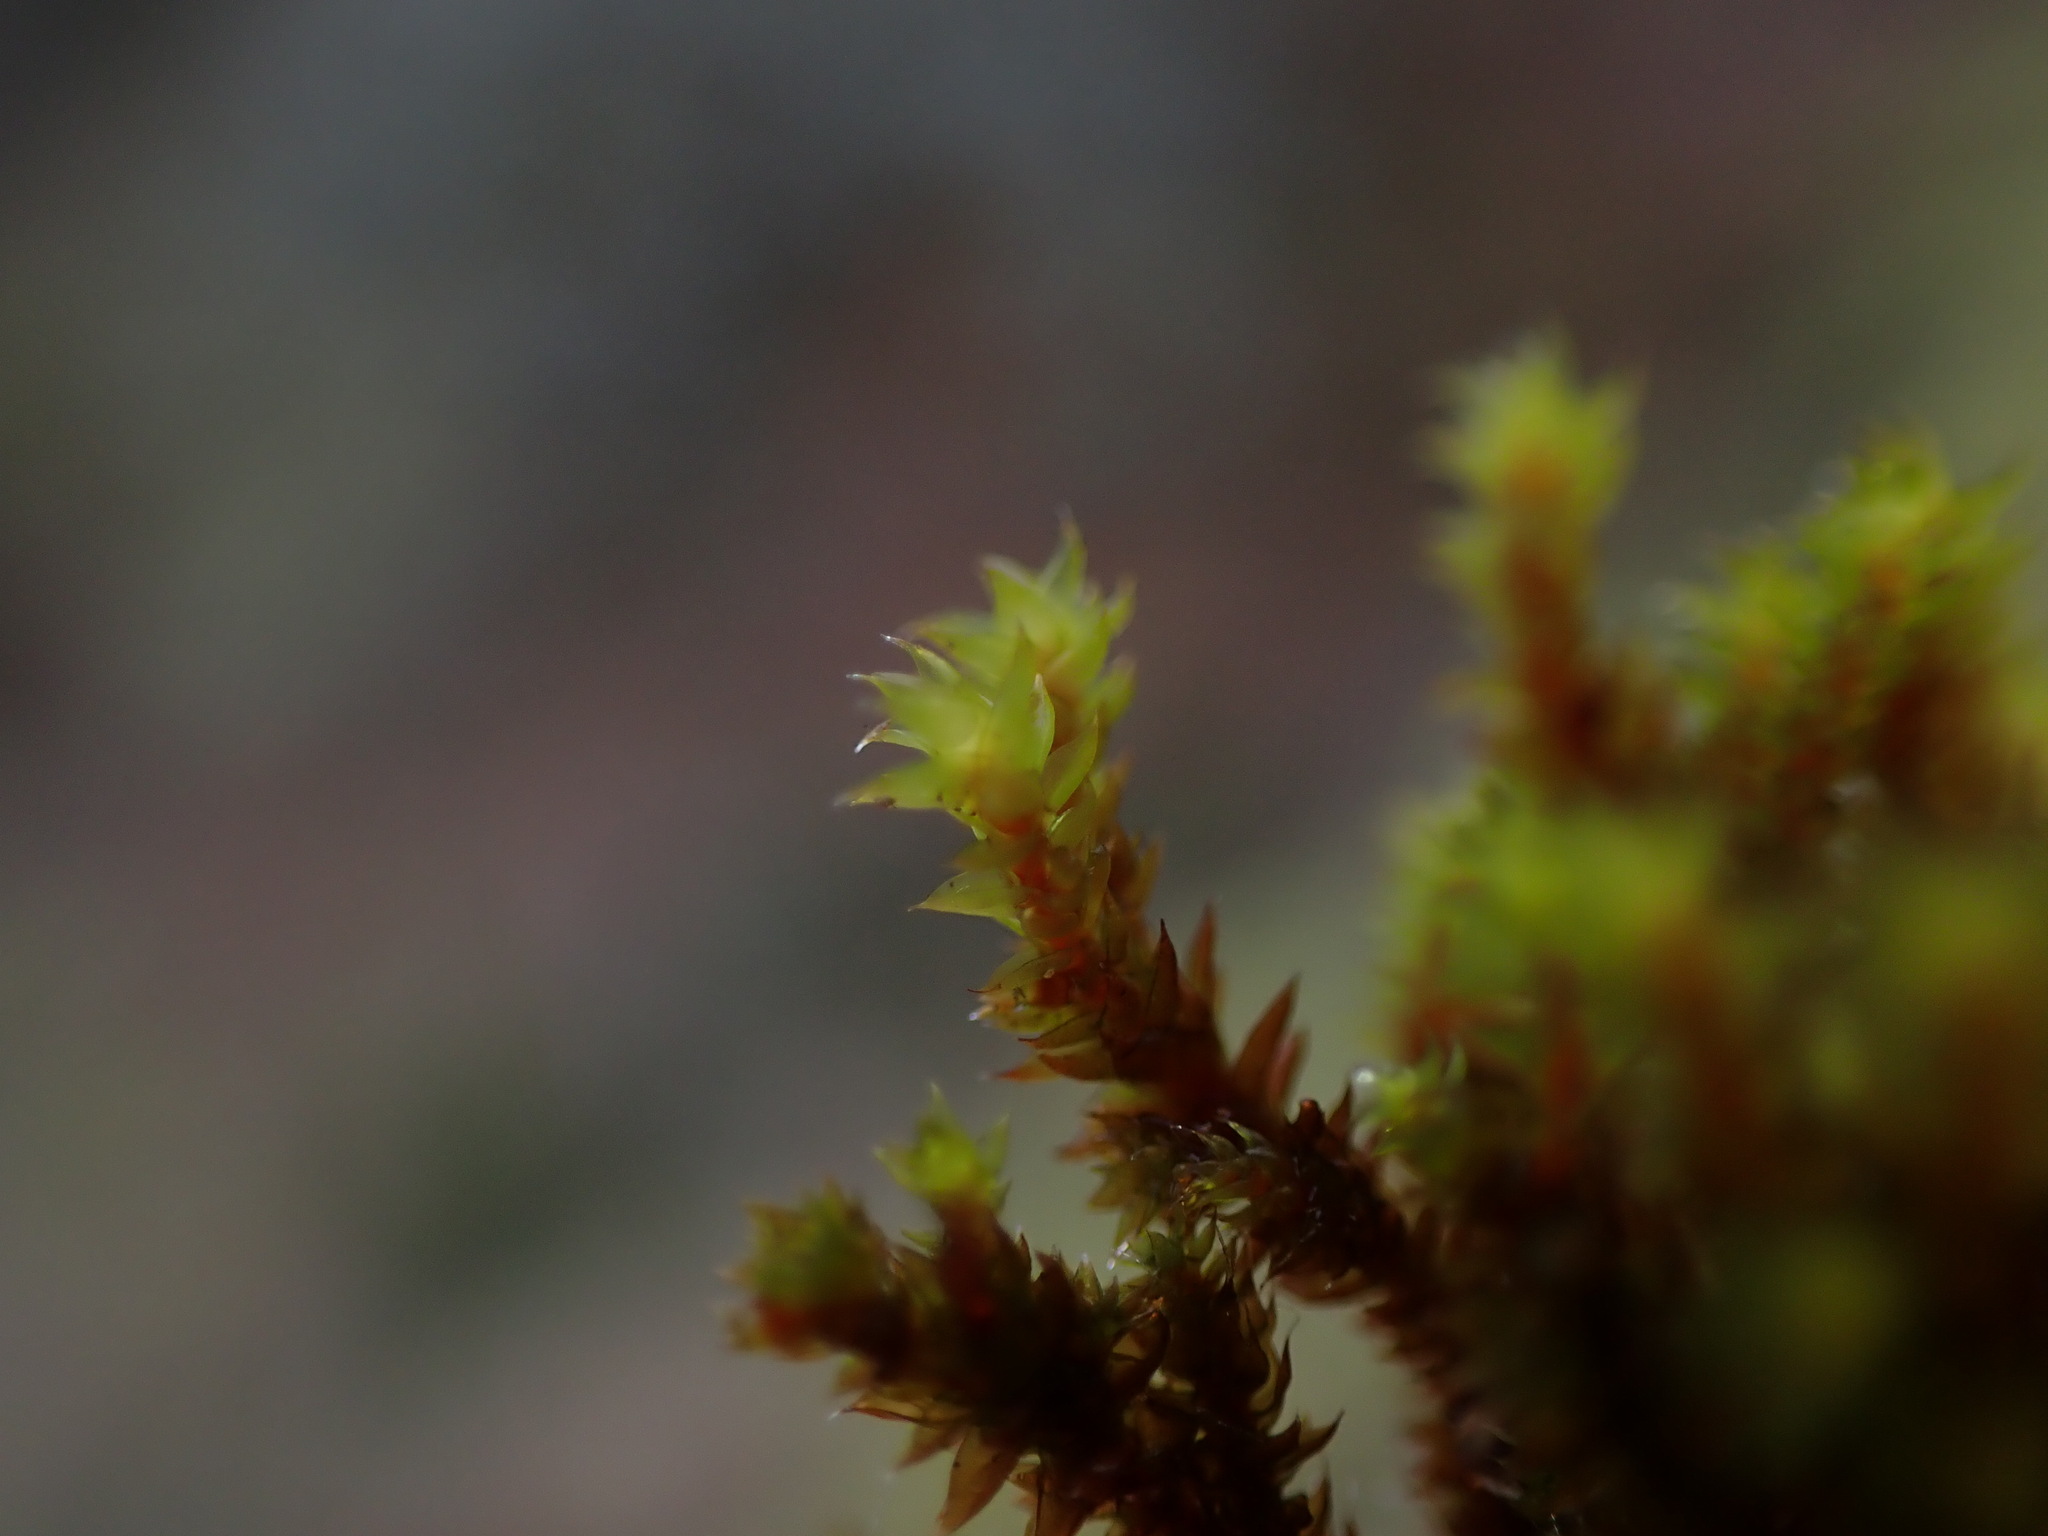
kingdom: Plantae
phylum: Bryophyta
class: Bryopsida
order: Hedwigiales
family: Hedwigiaceae
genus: Pseudobraunia
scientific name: Pseudobraunia californica
